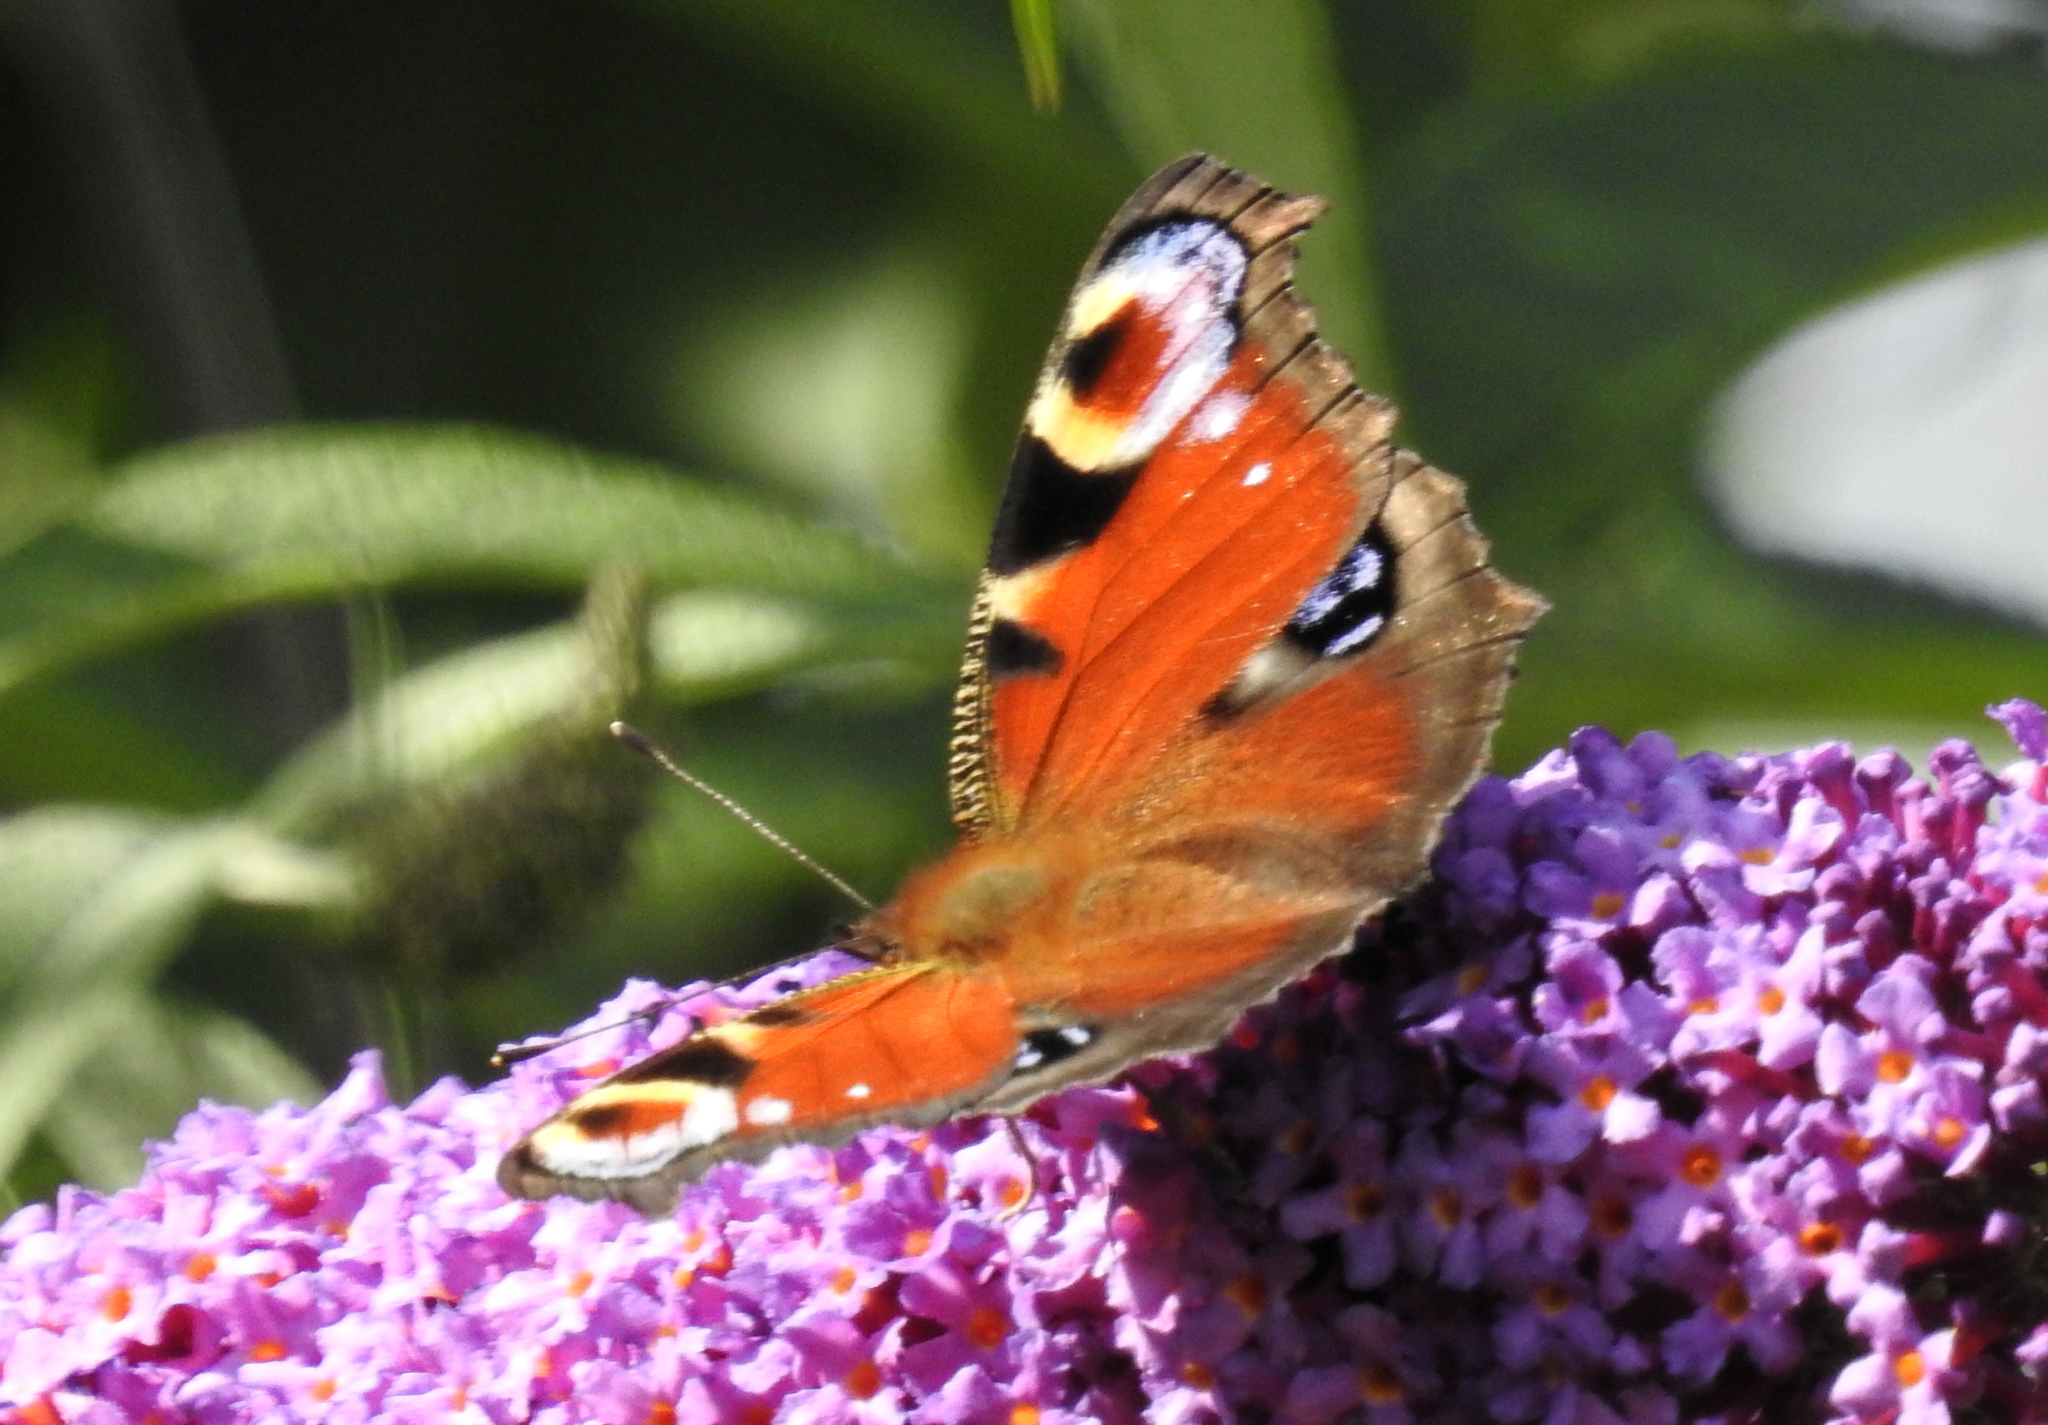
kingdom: Animalia
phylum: Arthropoda
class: Insecta
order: Lepidoptera
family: Nymphalidae
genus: Aglais
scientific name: Aglais io
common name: Peacock
